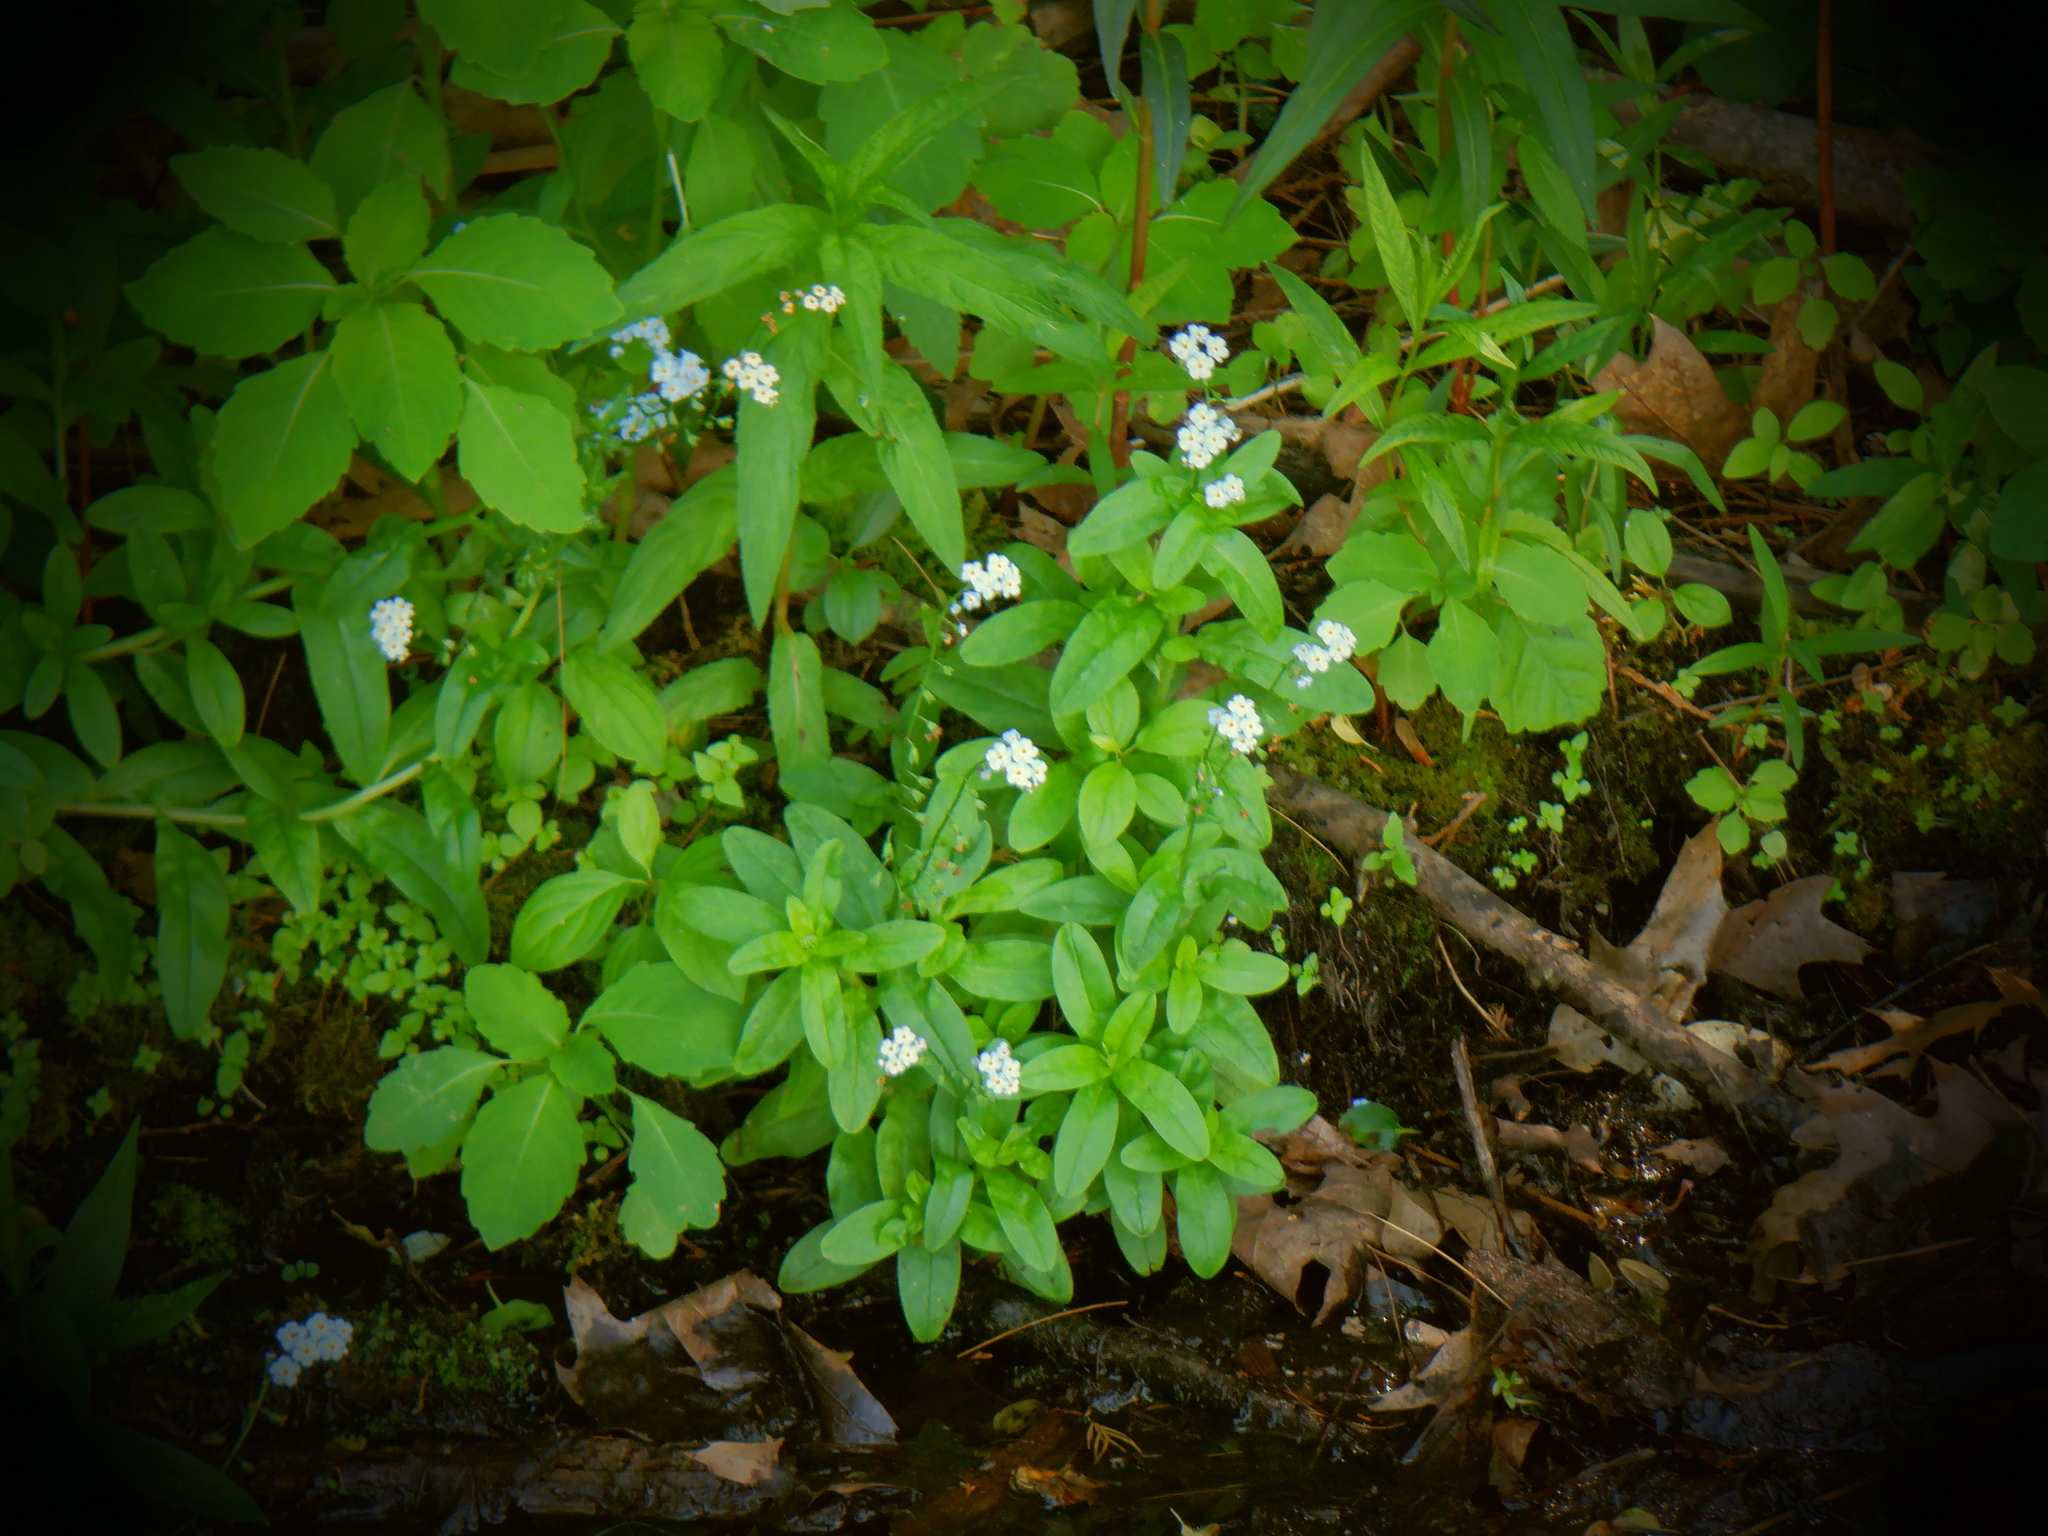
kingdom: Plantae
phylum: Tracheophyta
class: Magnoliopsida
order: Boraginales
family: Boraginaceae
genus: Myosotis
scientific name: Myosotis scorpioides
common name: Water forget-me-not
